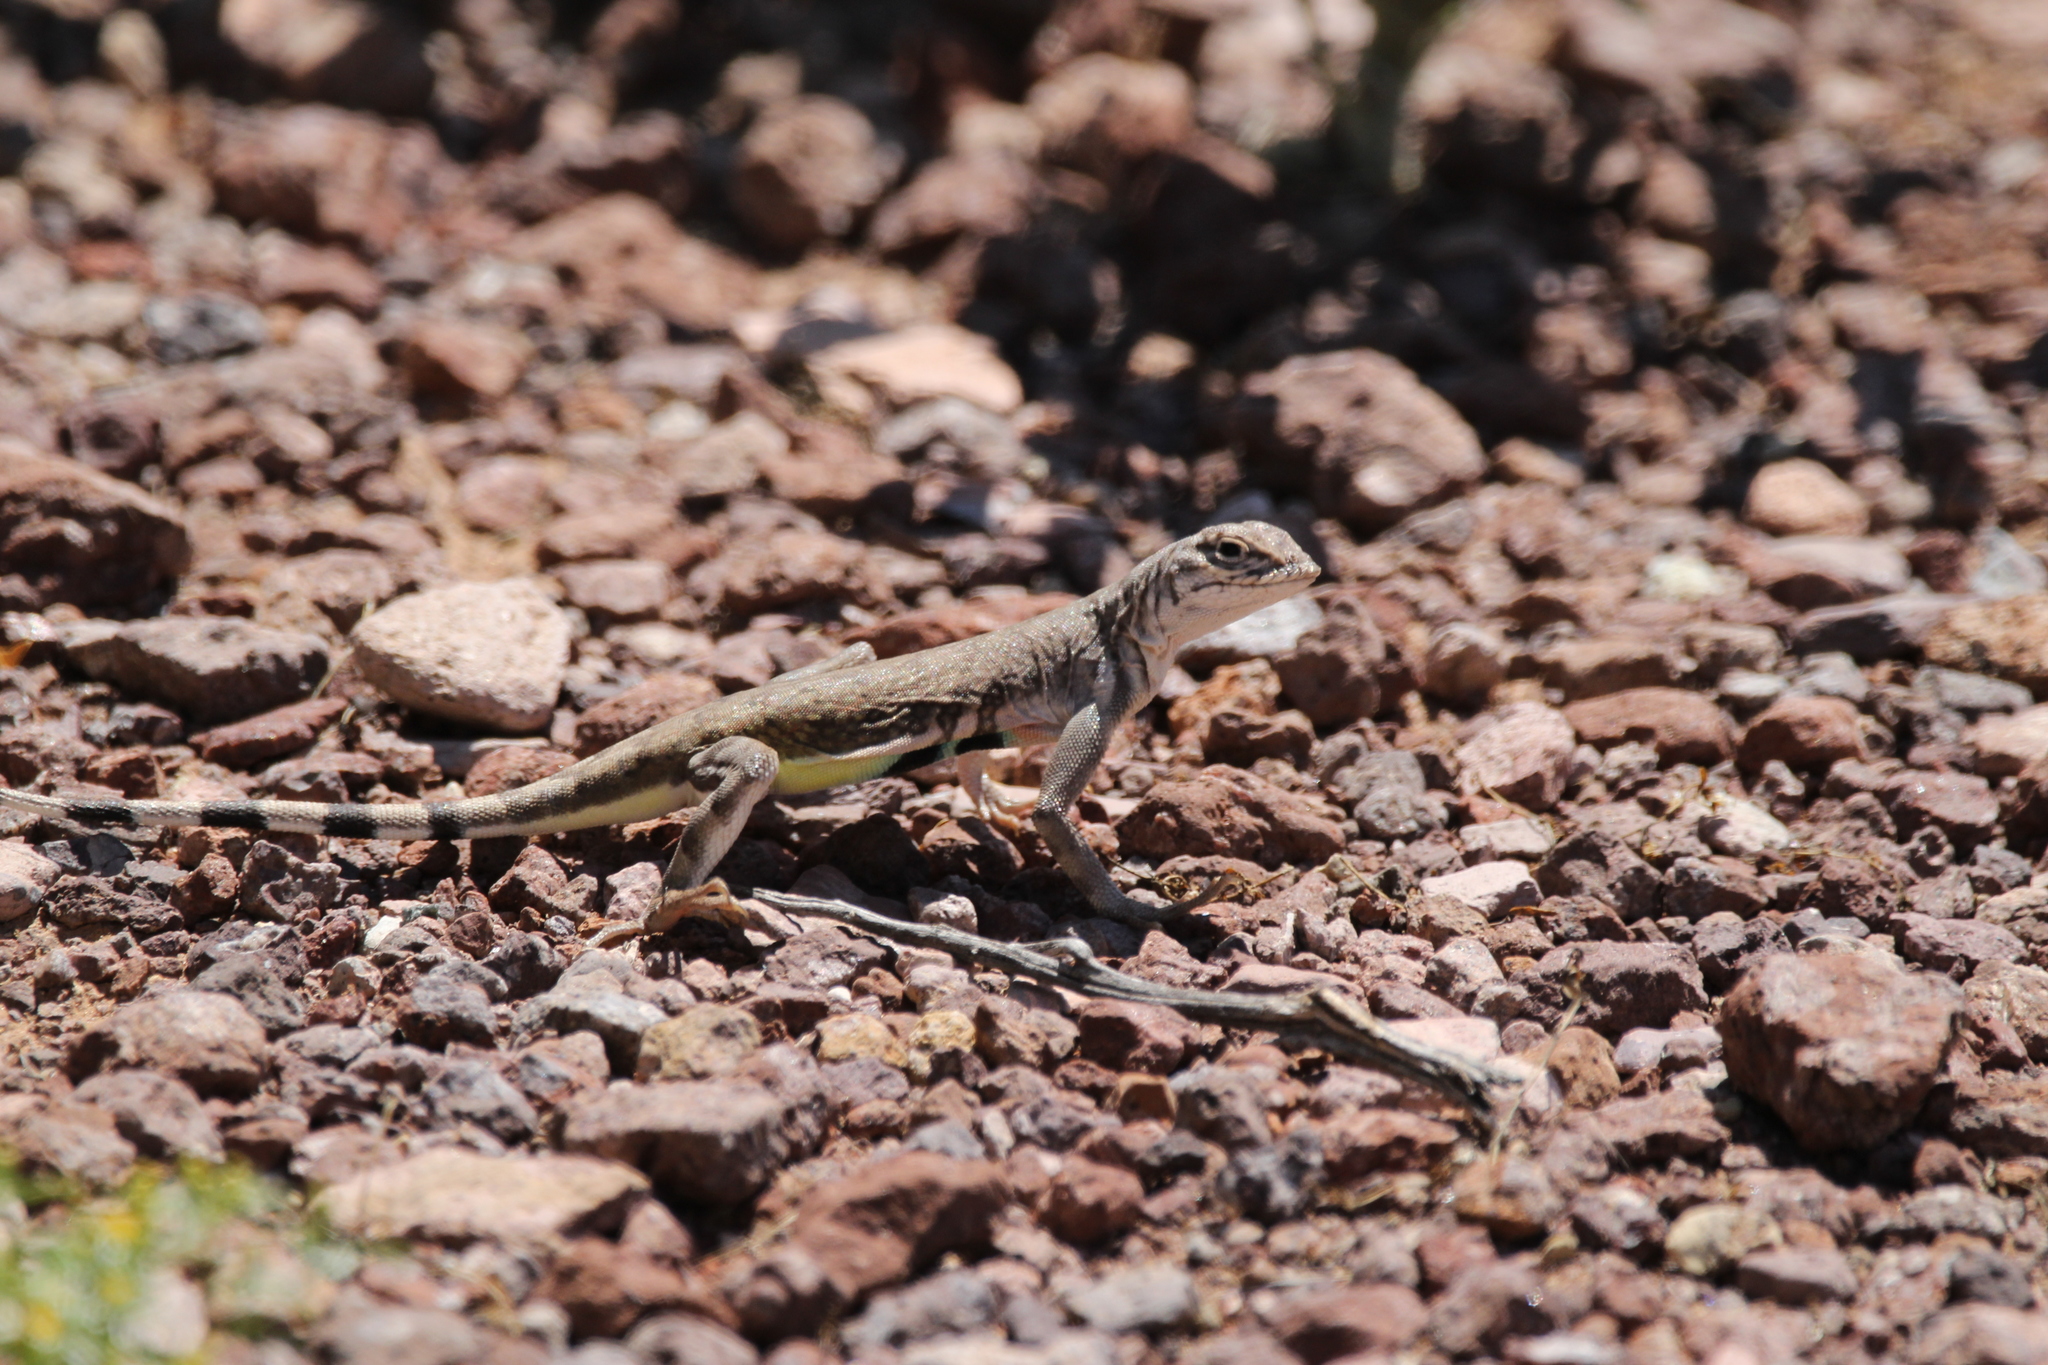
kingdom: Animalia
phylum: Chordata
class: Squamata
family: Phrynosomatidae
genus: Callisaurus
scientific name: Callisaurus draconoides
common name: Zebra-tailed lizard
